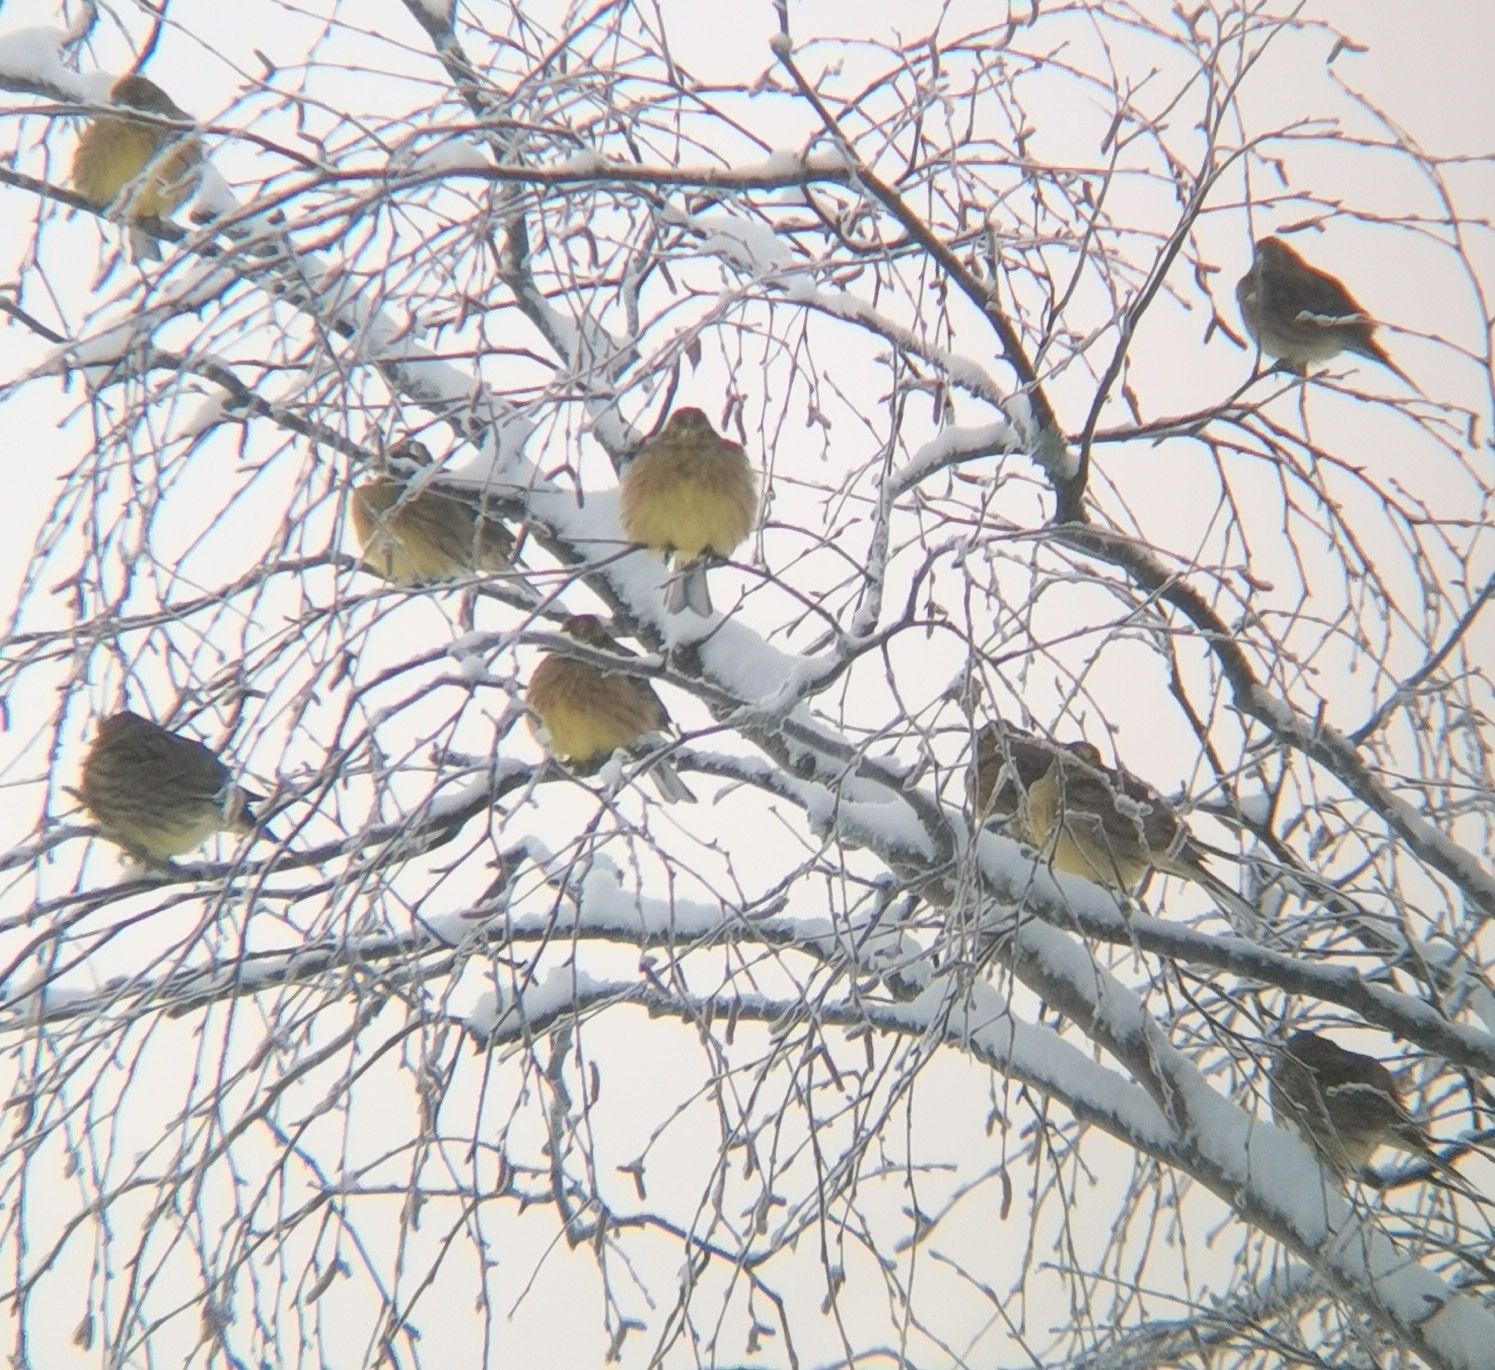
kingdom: Animalia
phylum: Chordata
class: Aves
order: Passeriformes
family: Emberizidae
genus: Emberiza
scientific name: Emberiza citrinella
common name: Yellowhammer
